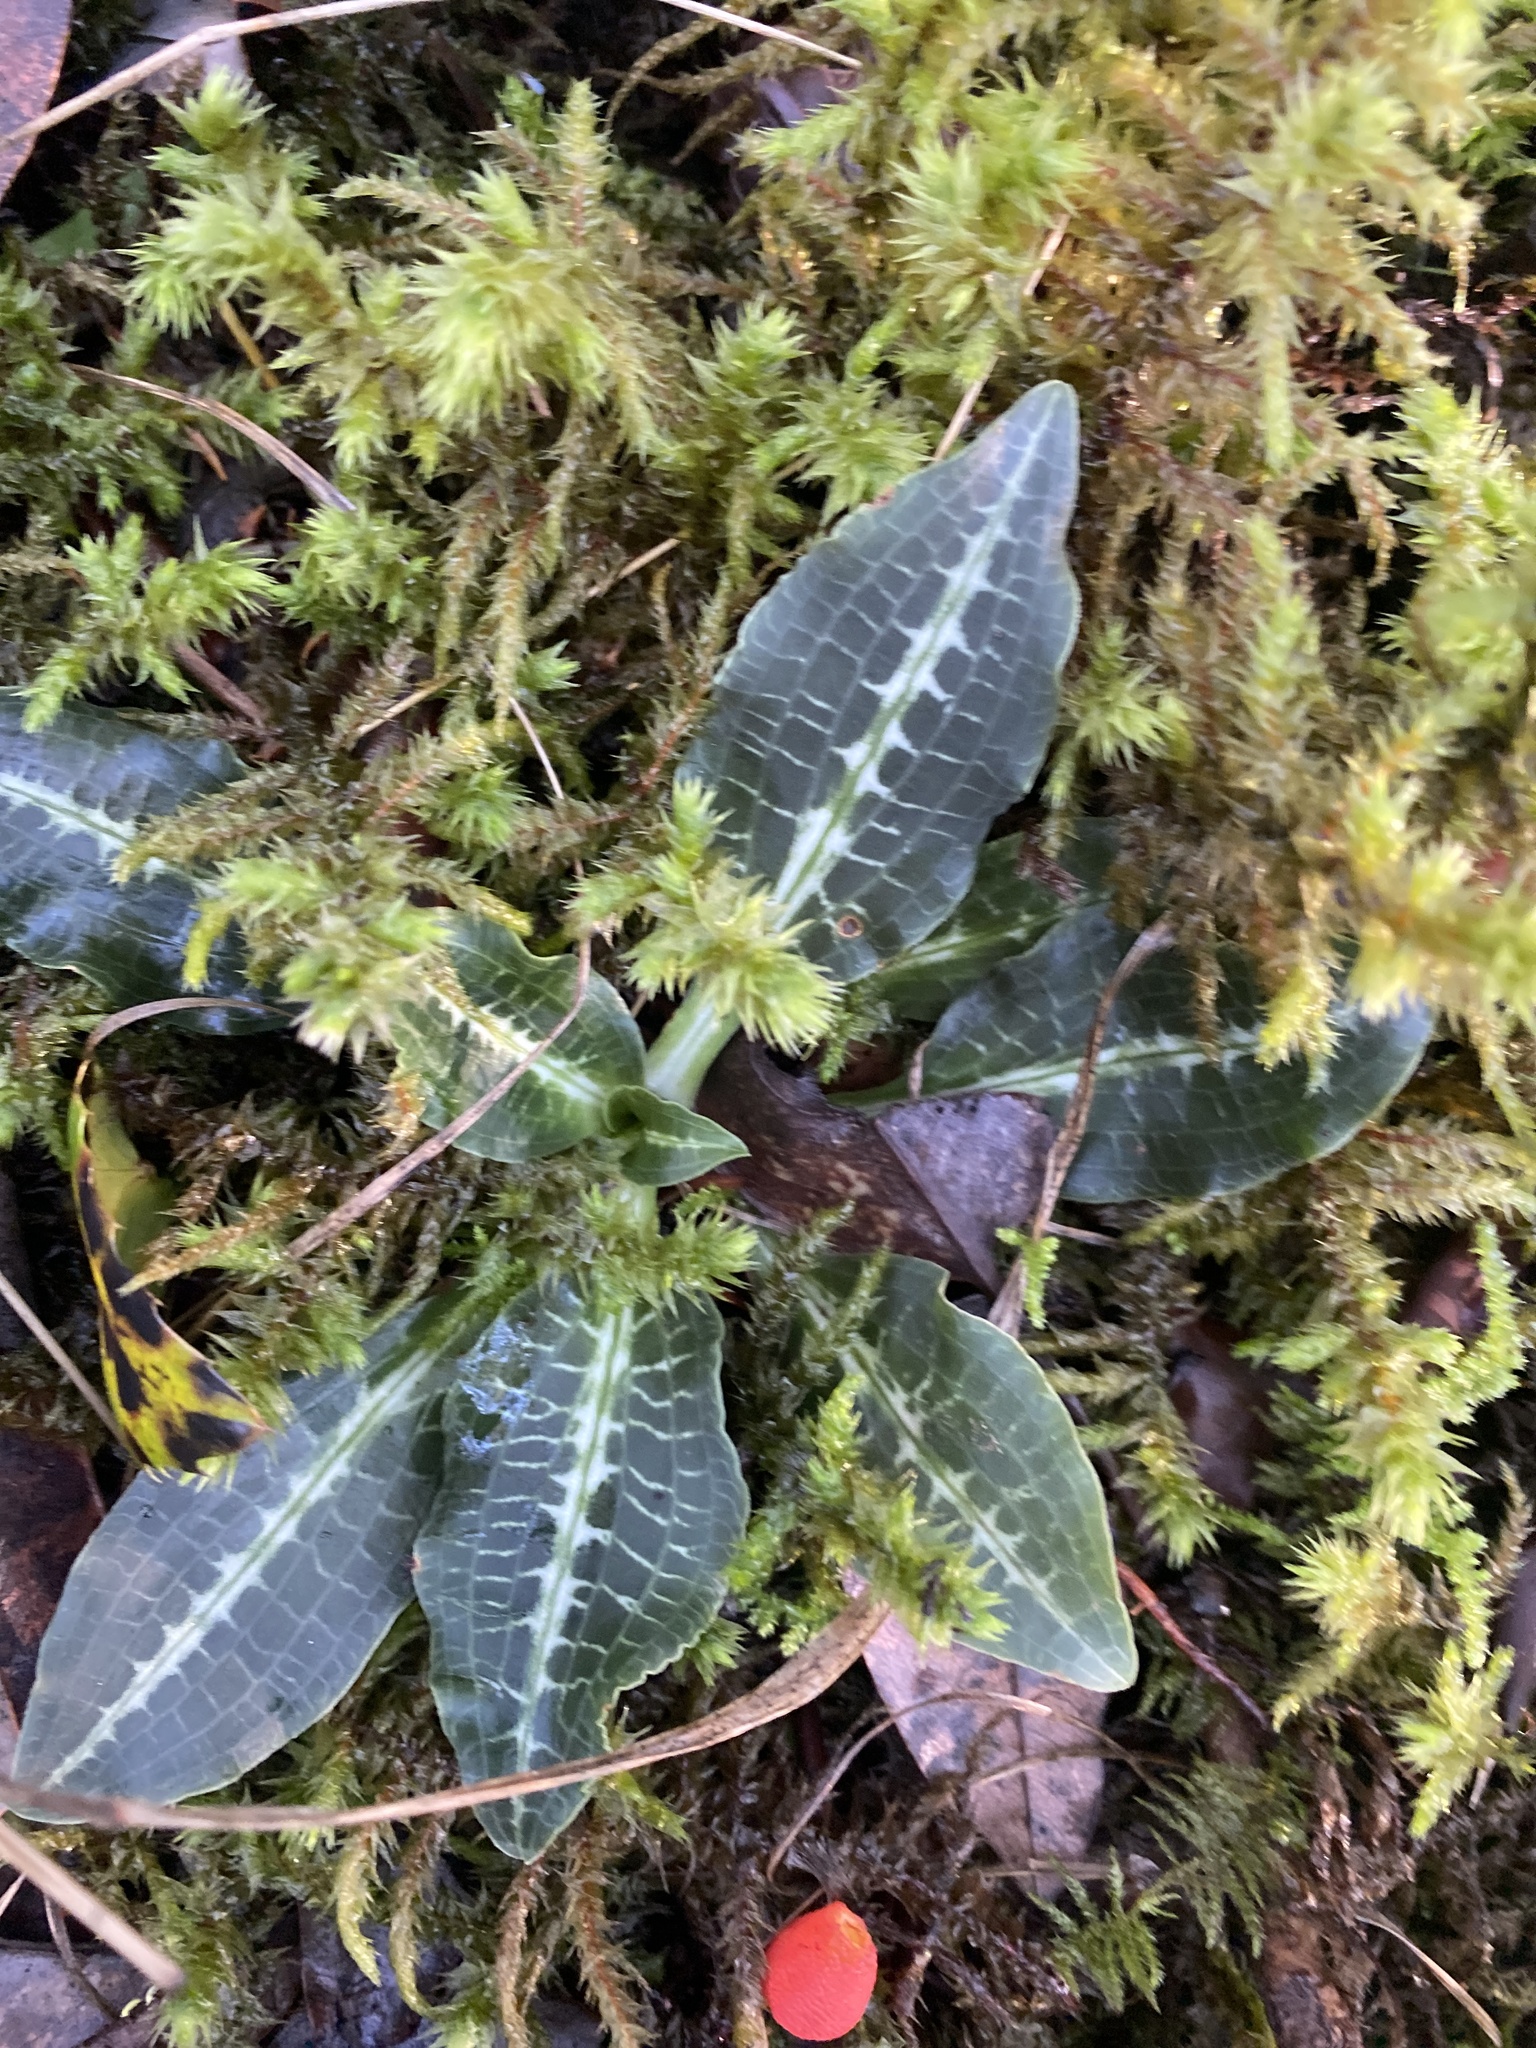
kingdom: Plantae
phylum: Tracheophyta
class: Liliopsida
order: Asparagales
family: Orchidaceae
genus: Goodyera
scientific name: Goodyera oblongifolia
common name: Giant rattlesnake-plantain
